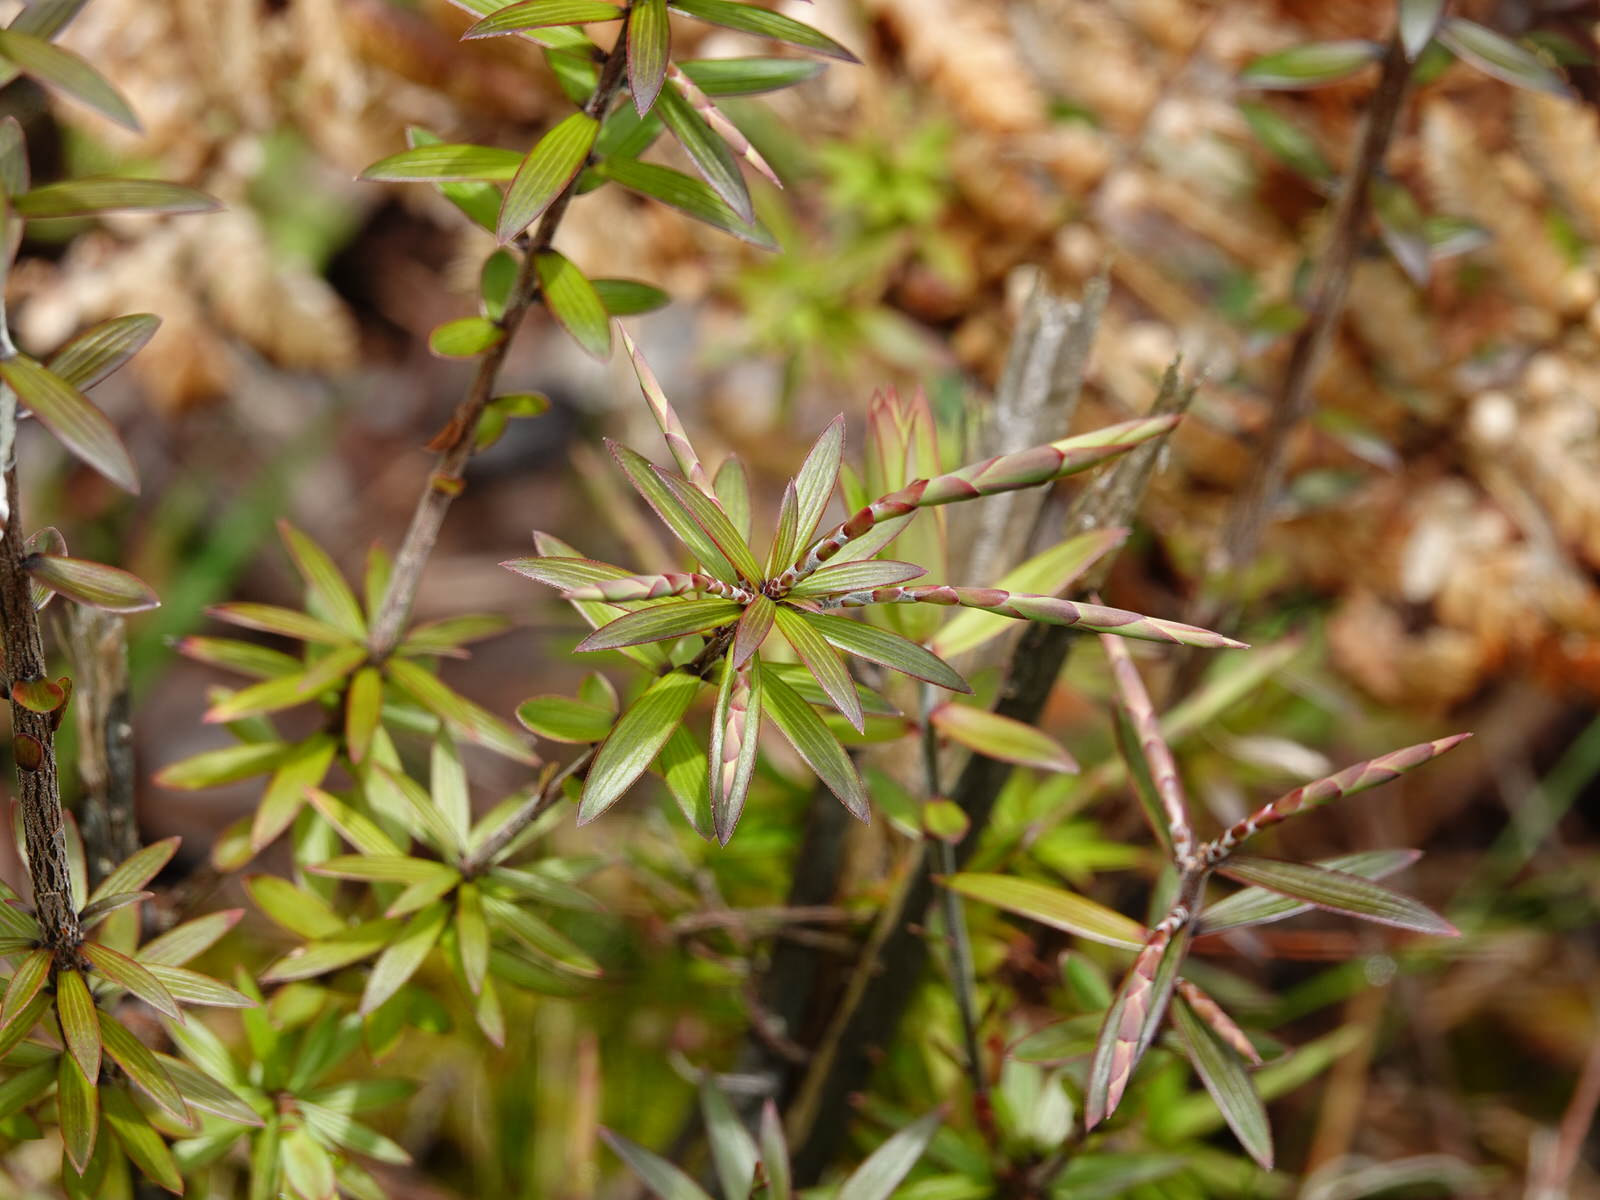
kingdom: Plantae
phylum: Tracheophyta
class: Magnoliopsida
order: Ericales
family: Ericaceae
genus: Leucopogon
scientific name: Leucopogon fasciculatus
